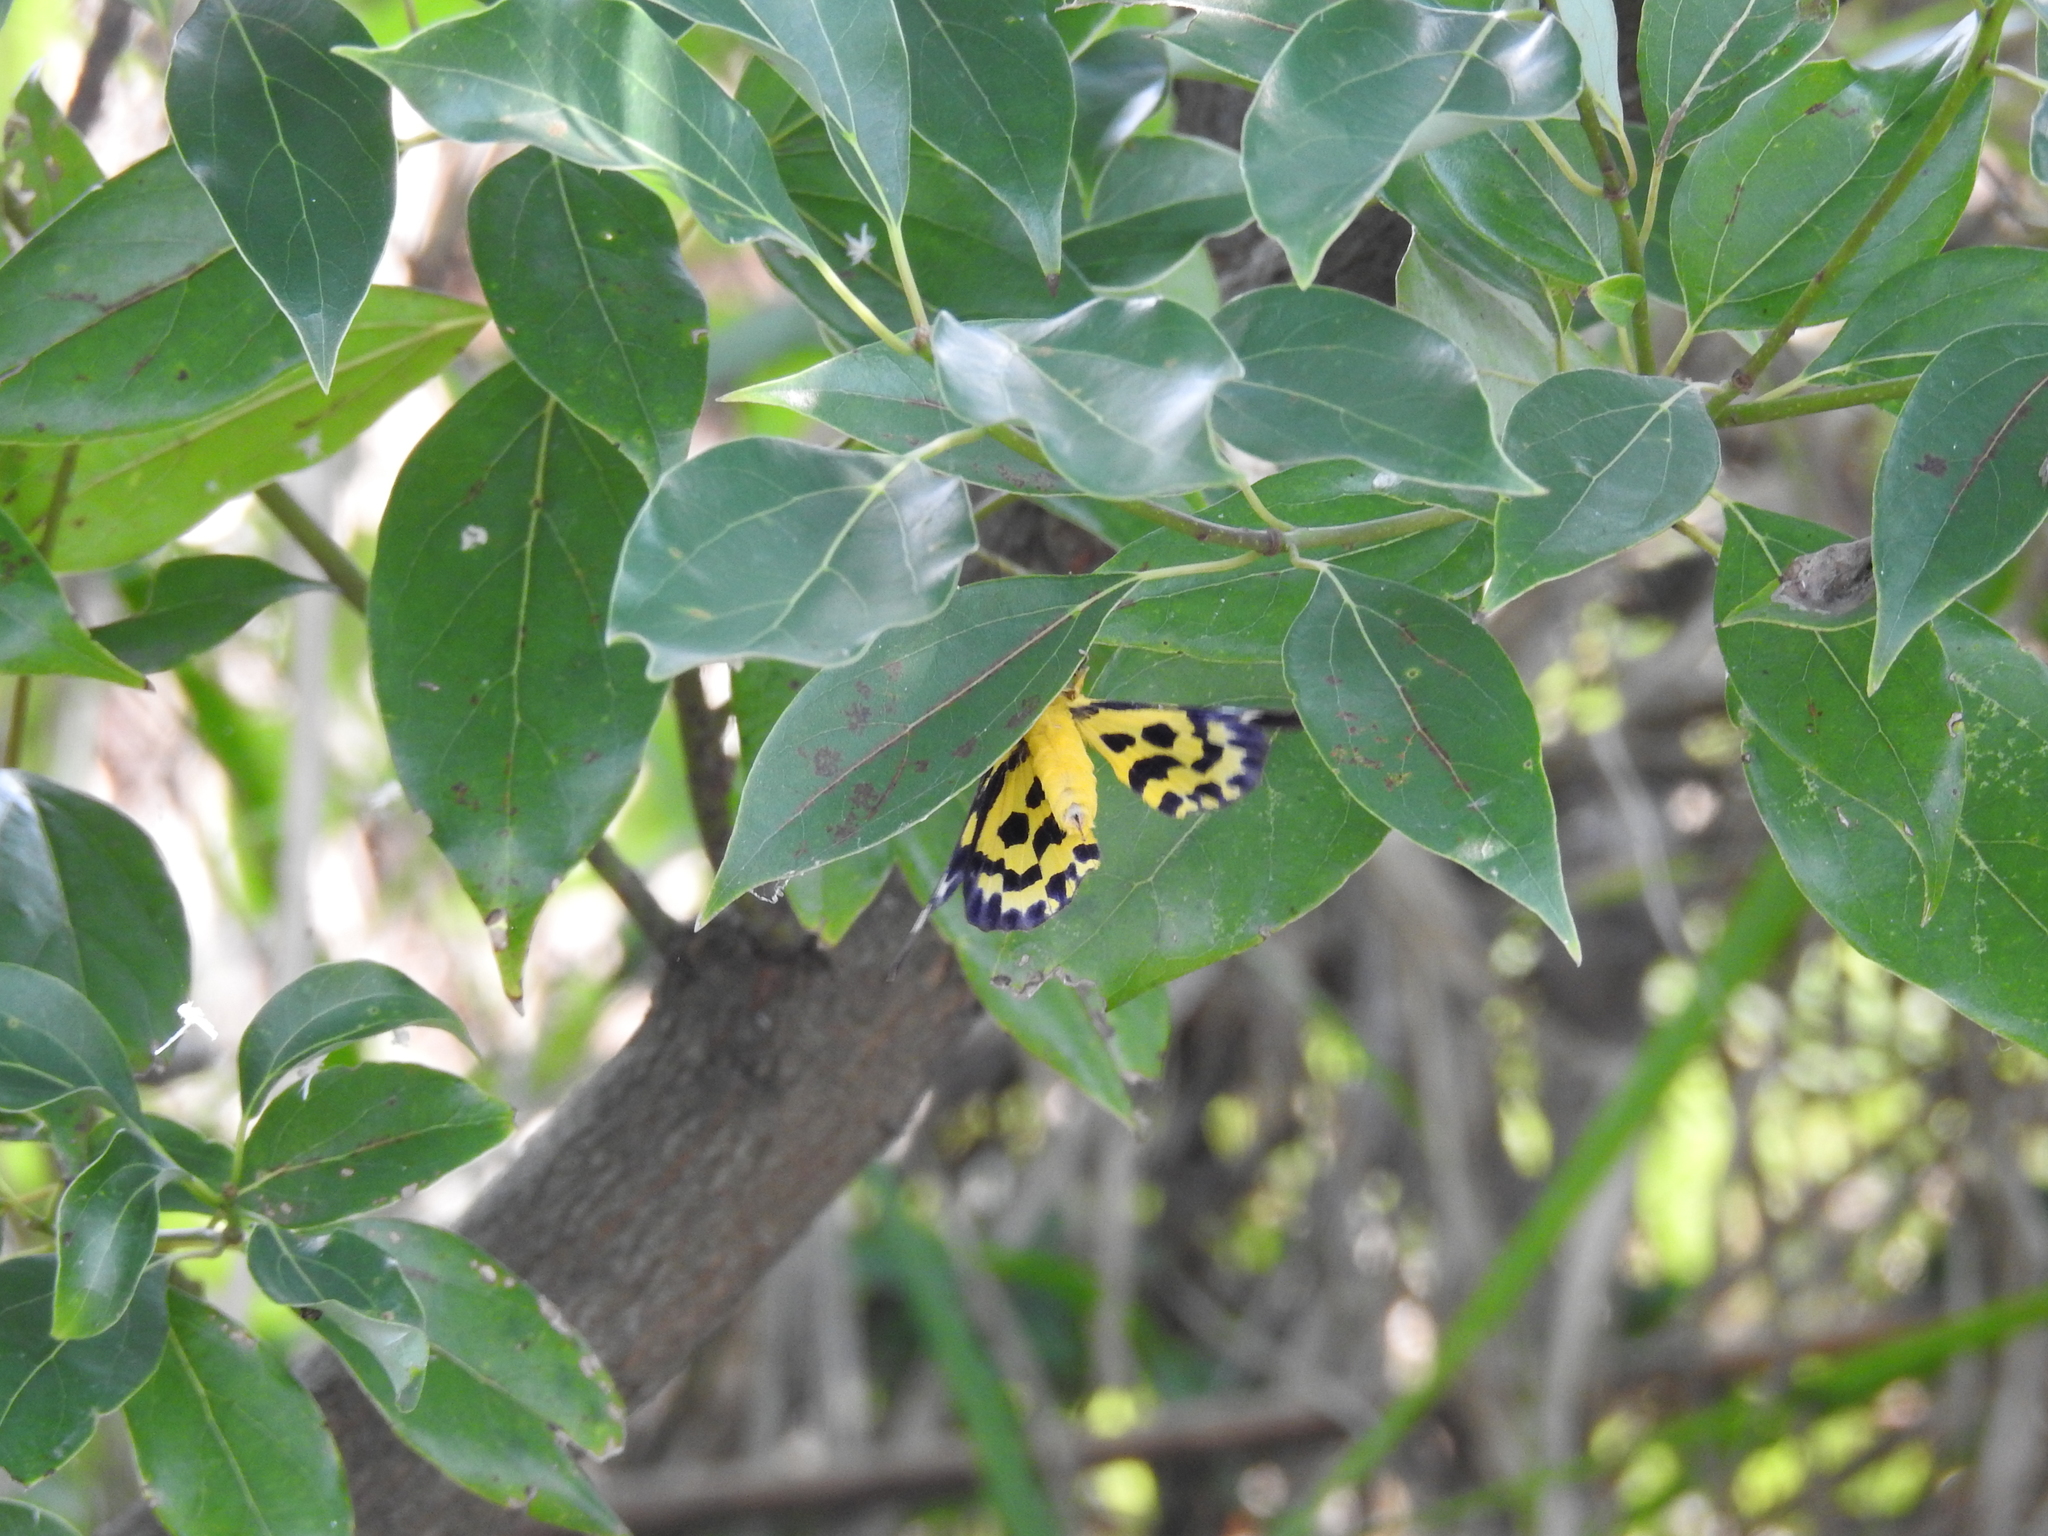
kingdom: Animalia
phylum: Arthropoda
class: Insecta
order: Lepidoptera
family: Geometridae
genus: Dysphania
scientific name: Dysphania militaris
